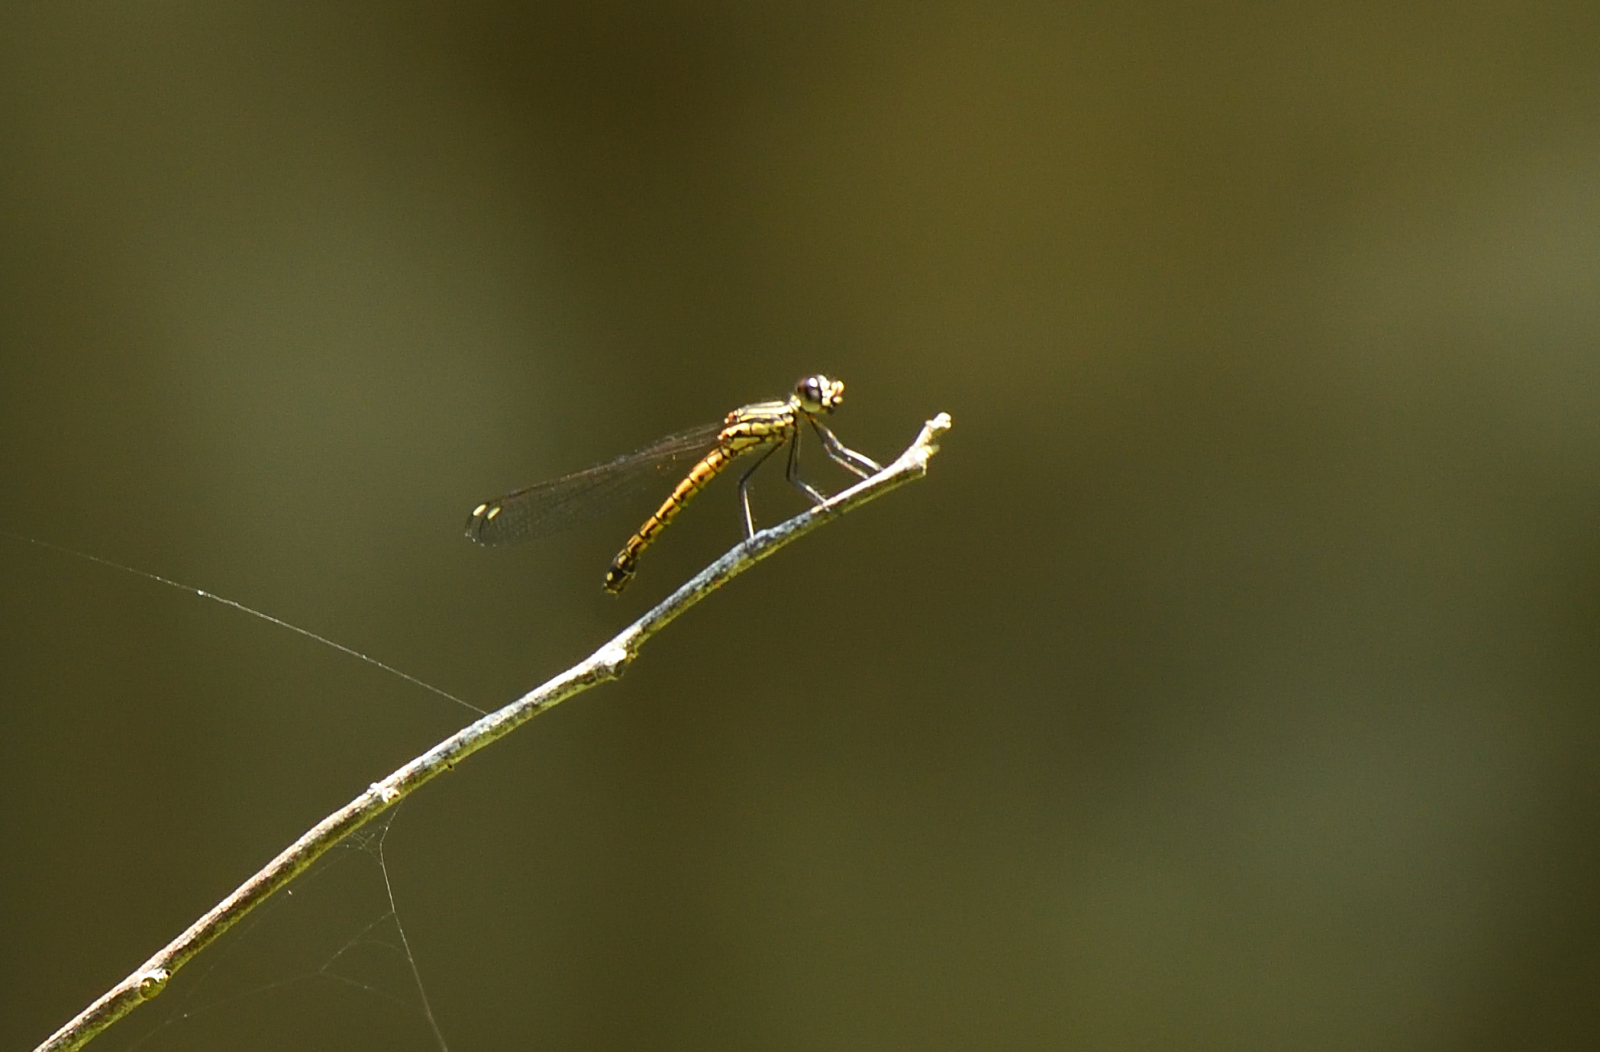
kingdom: Animalia
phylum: Arthropoda
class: Insecta
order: Odonata
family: Chlorocyphidae
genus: Libellago
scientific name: Libellago indica
